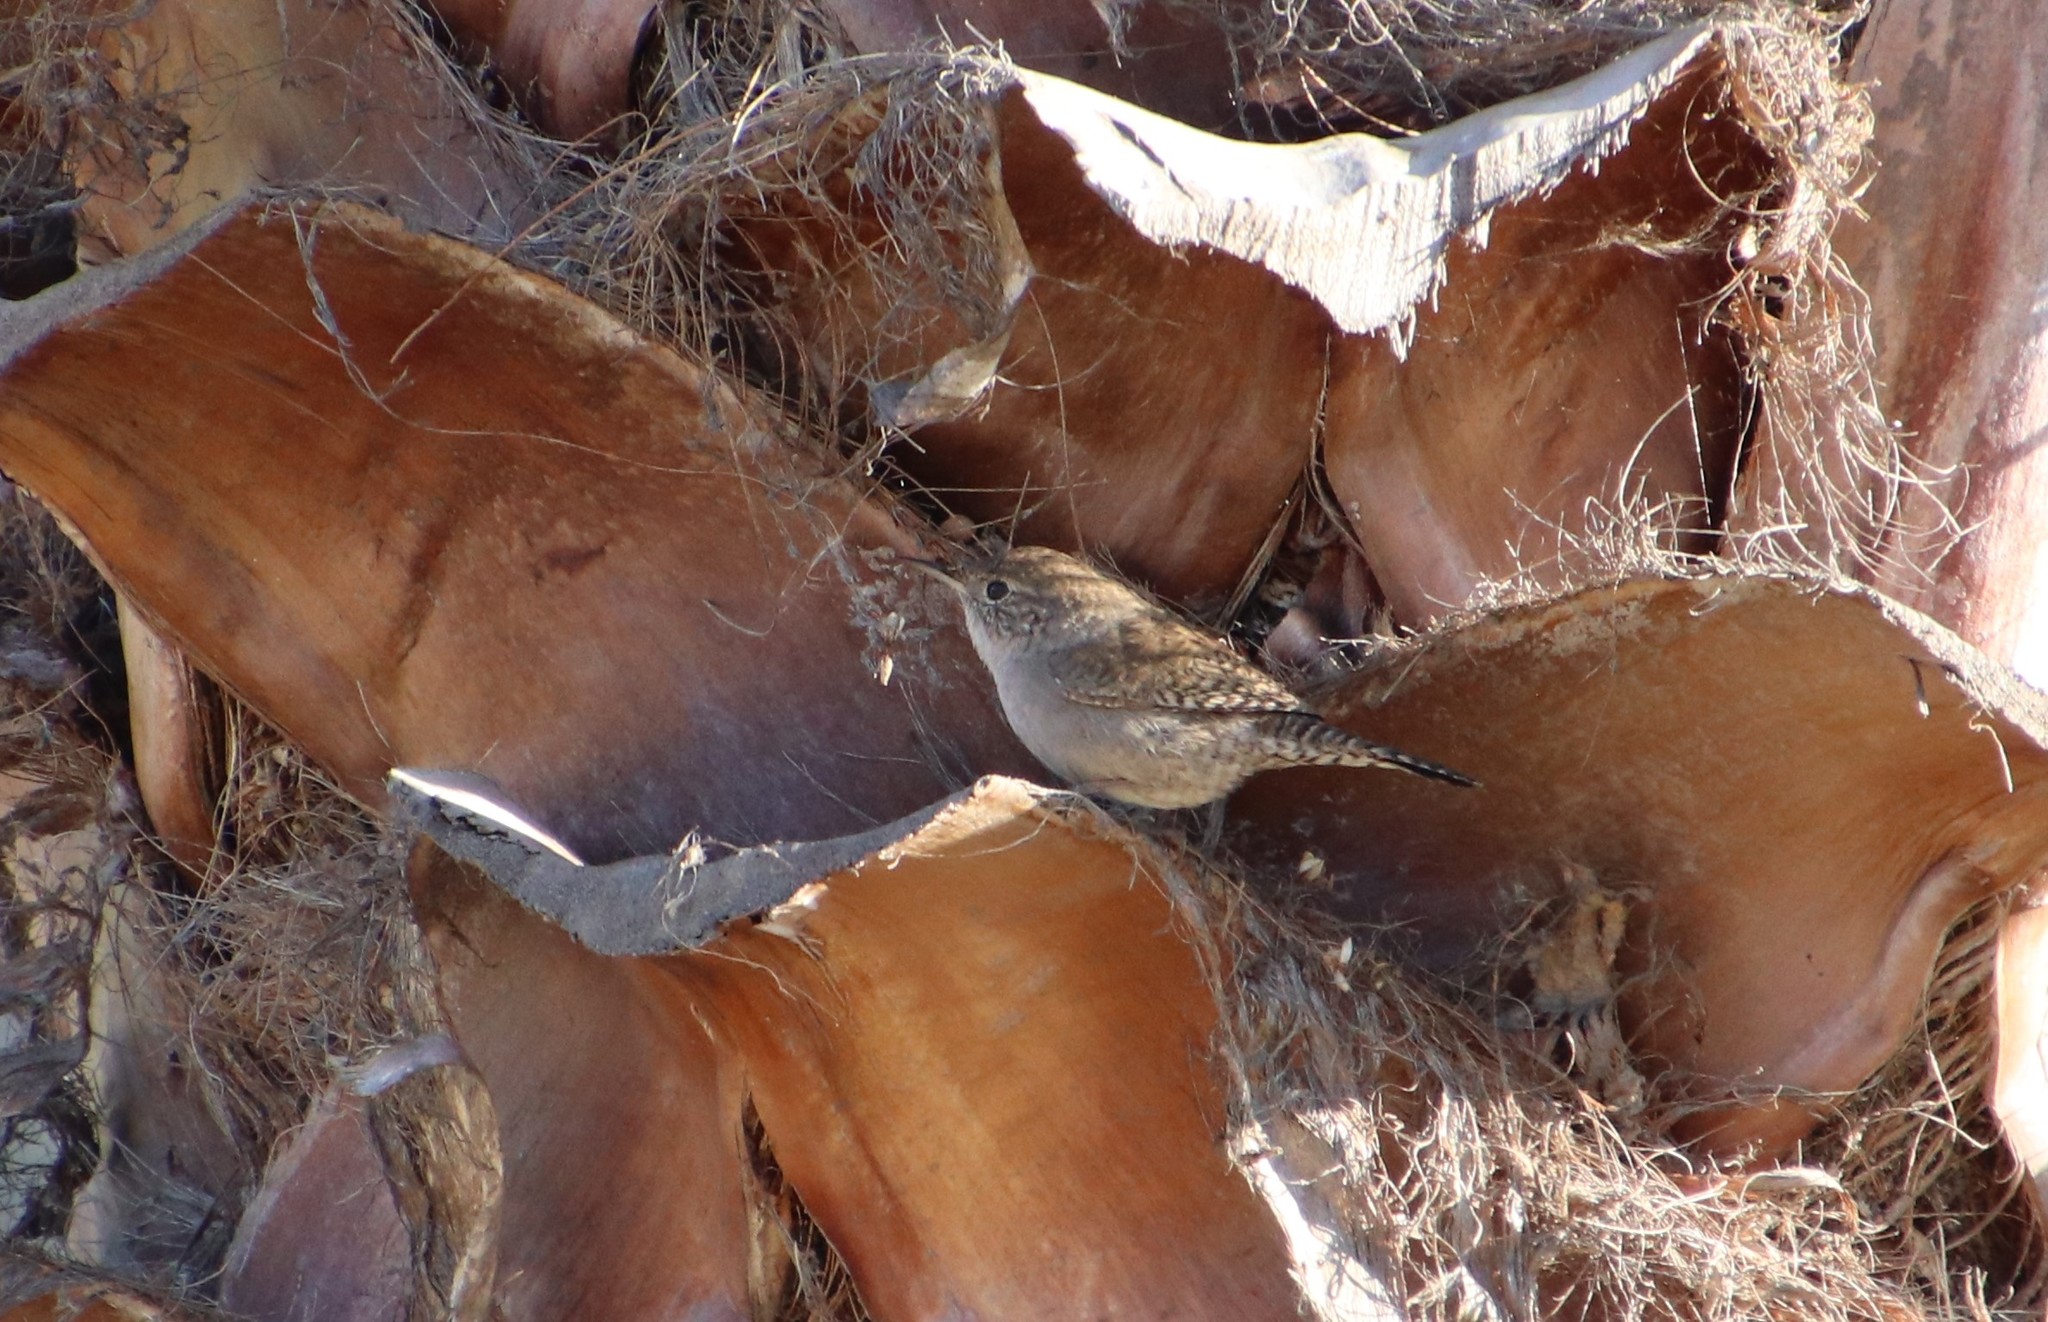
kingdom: Animalia
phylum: Chordata
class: Aves
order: Passeriformes
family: Troglodytidae
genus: Troglodytes
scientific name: Troglodytes aedon
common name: House wren
